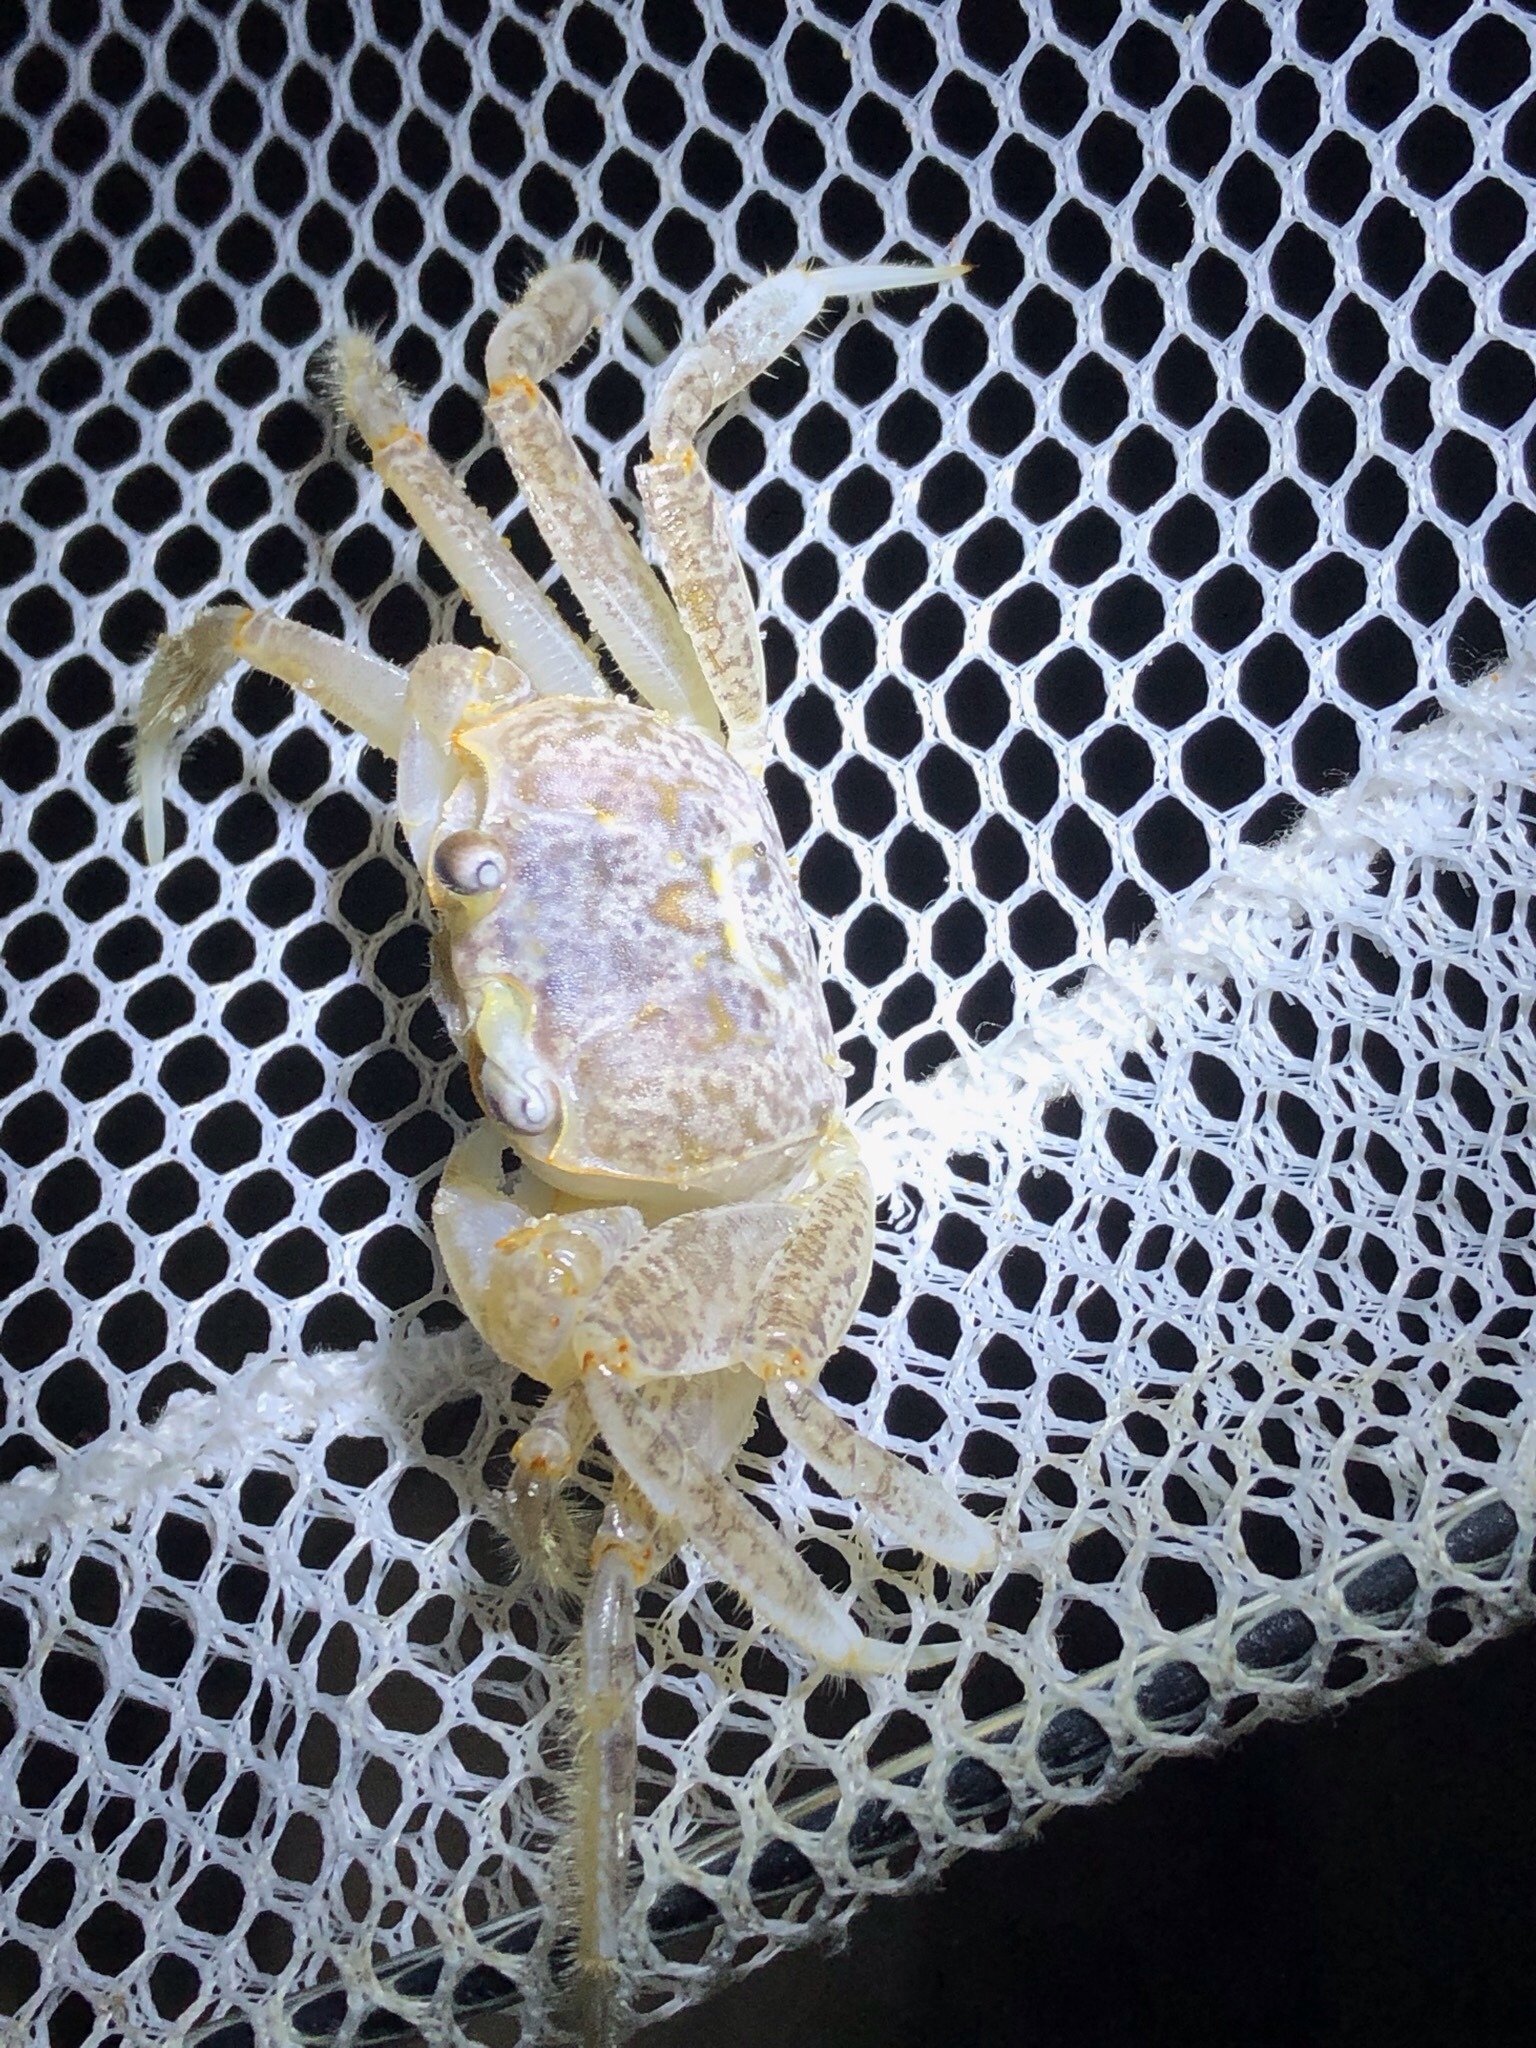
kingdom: Animalia
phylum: Arthropoda
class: Malacostraca
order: Decapoda
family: Ocypodidae
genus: Ocypode
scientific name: Ocypode quadrata
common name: Ghost crab
